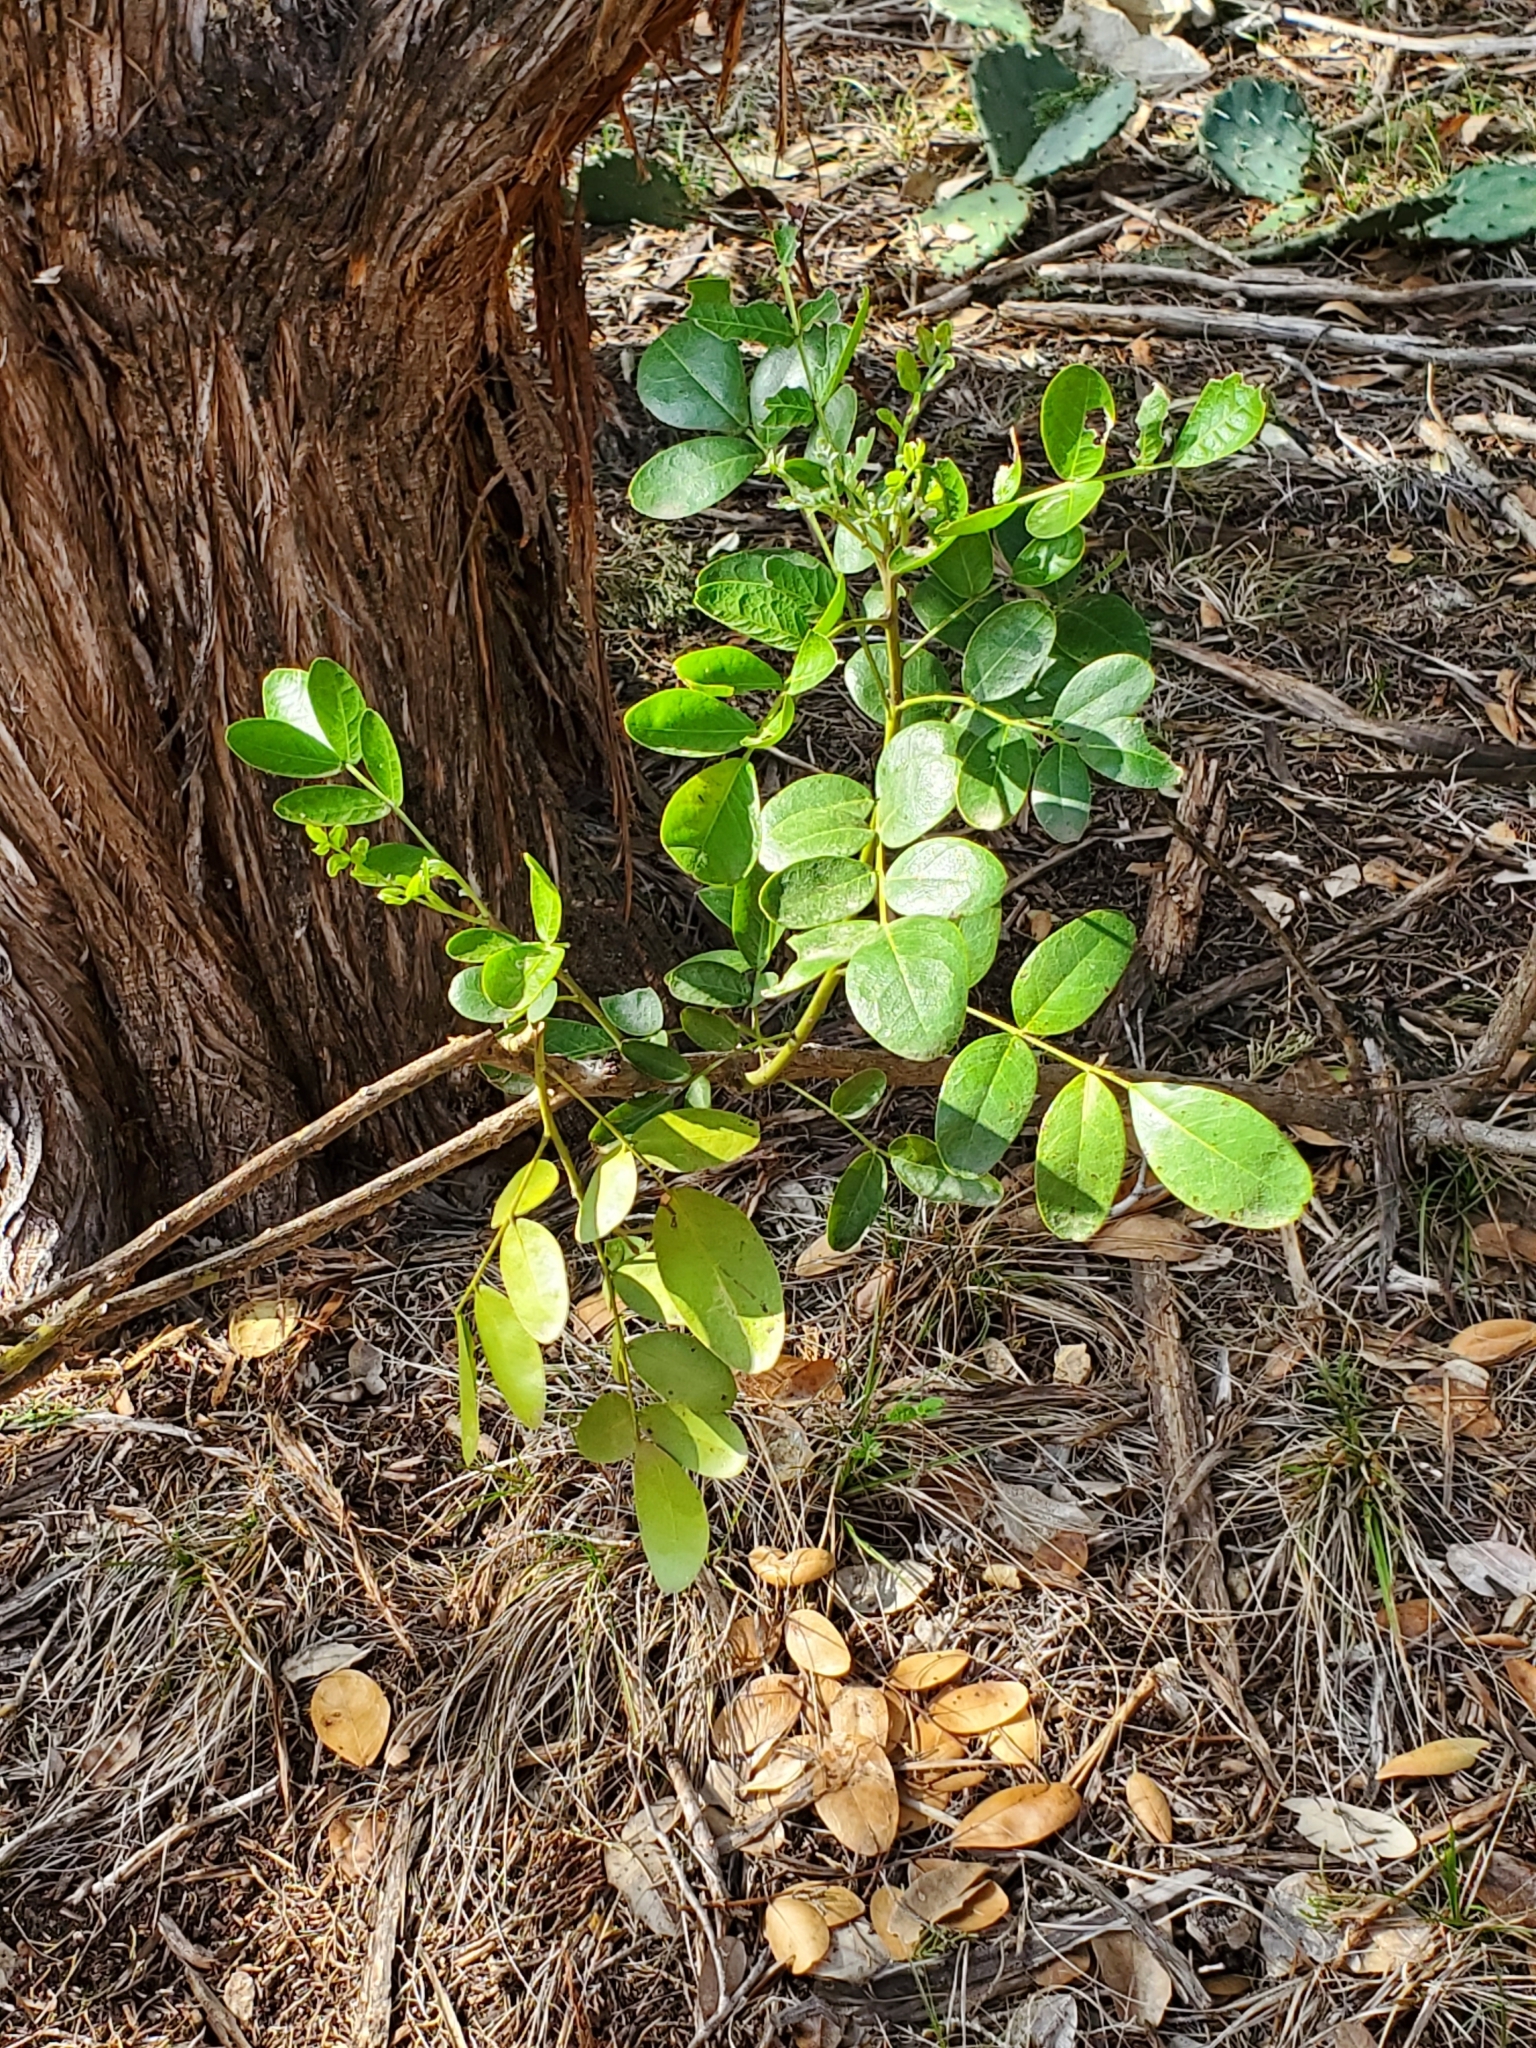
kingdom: Plantae
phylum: Tracheophyta
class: Magnoliopsida
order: Fabales
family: Fabaceae
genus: Dermatophyllum
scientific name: Dermatophyllum secundiflorum
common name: Texas-mountain-laurel
